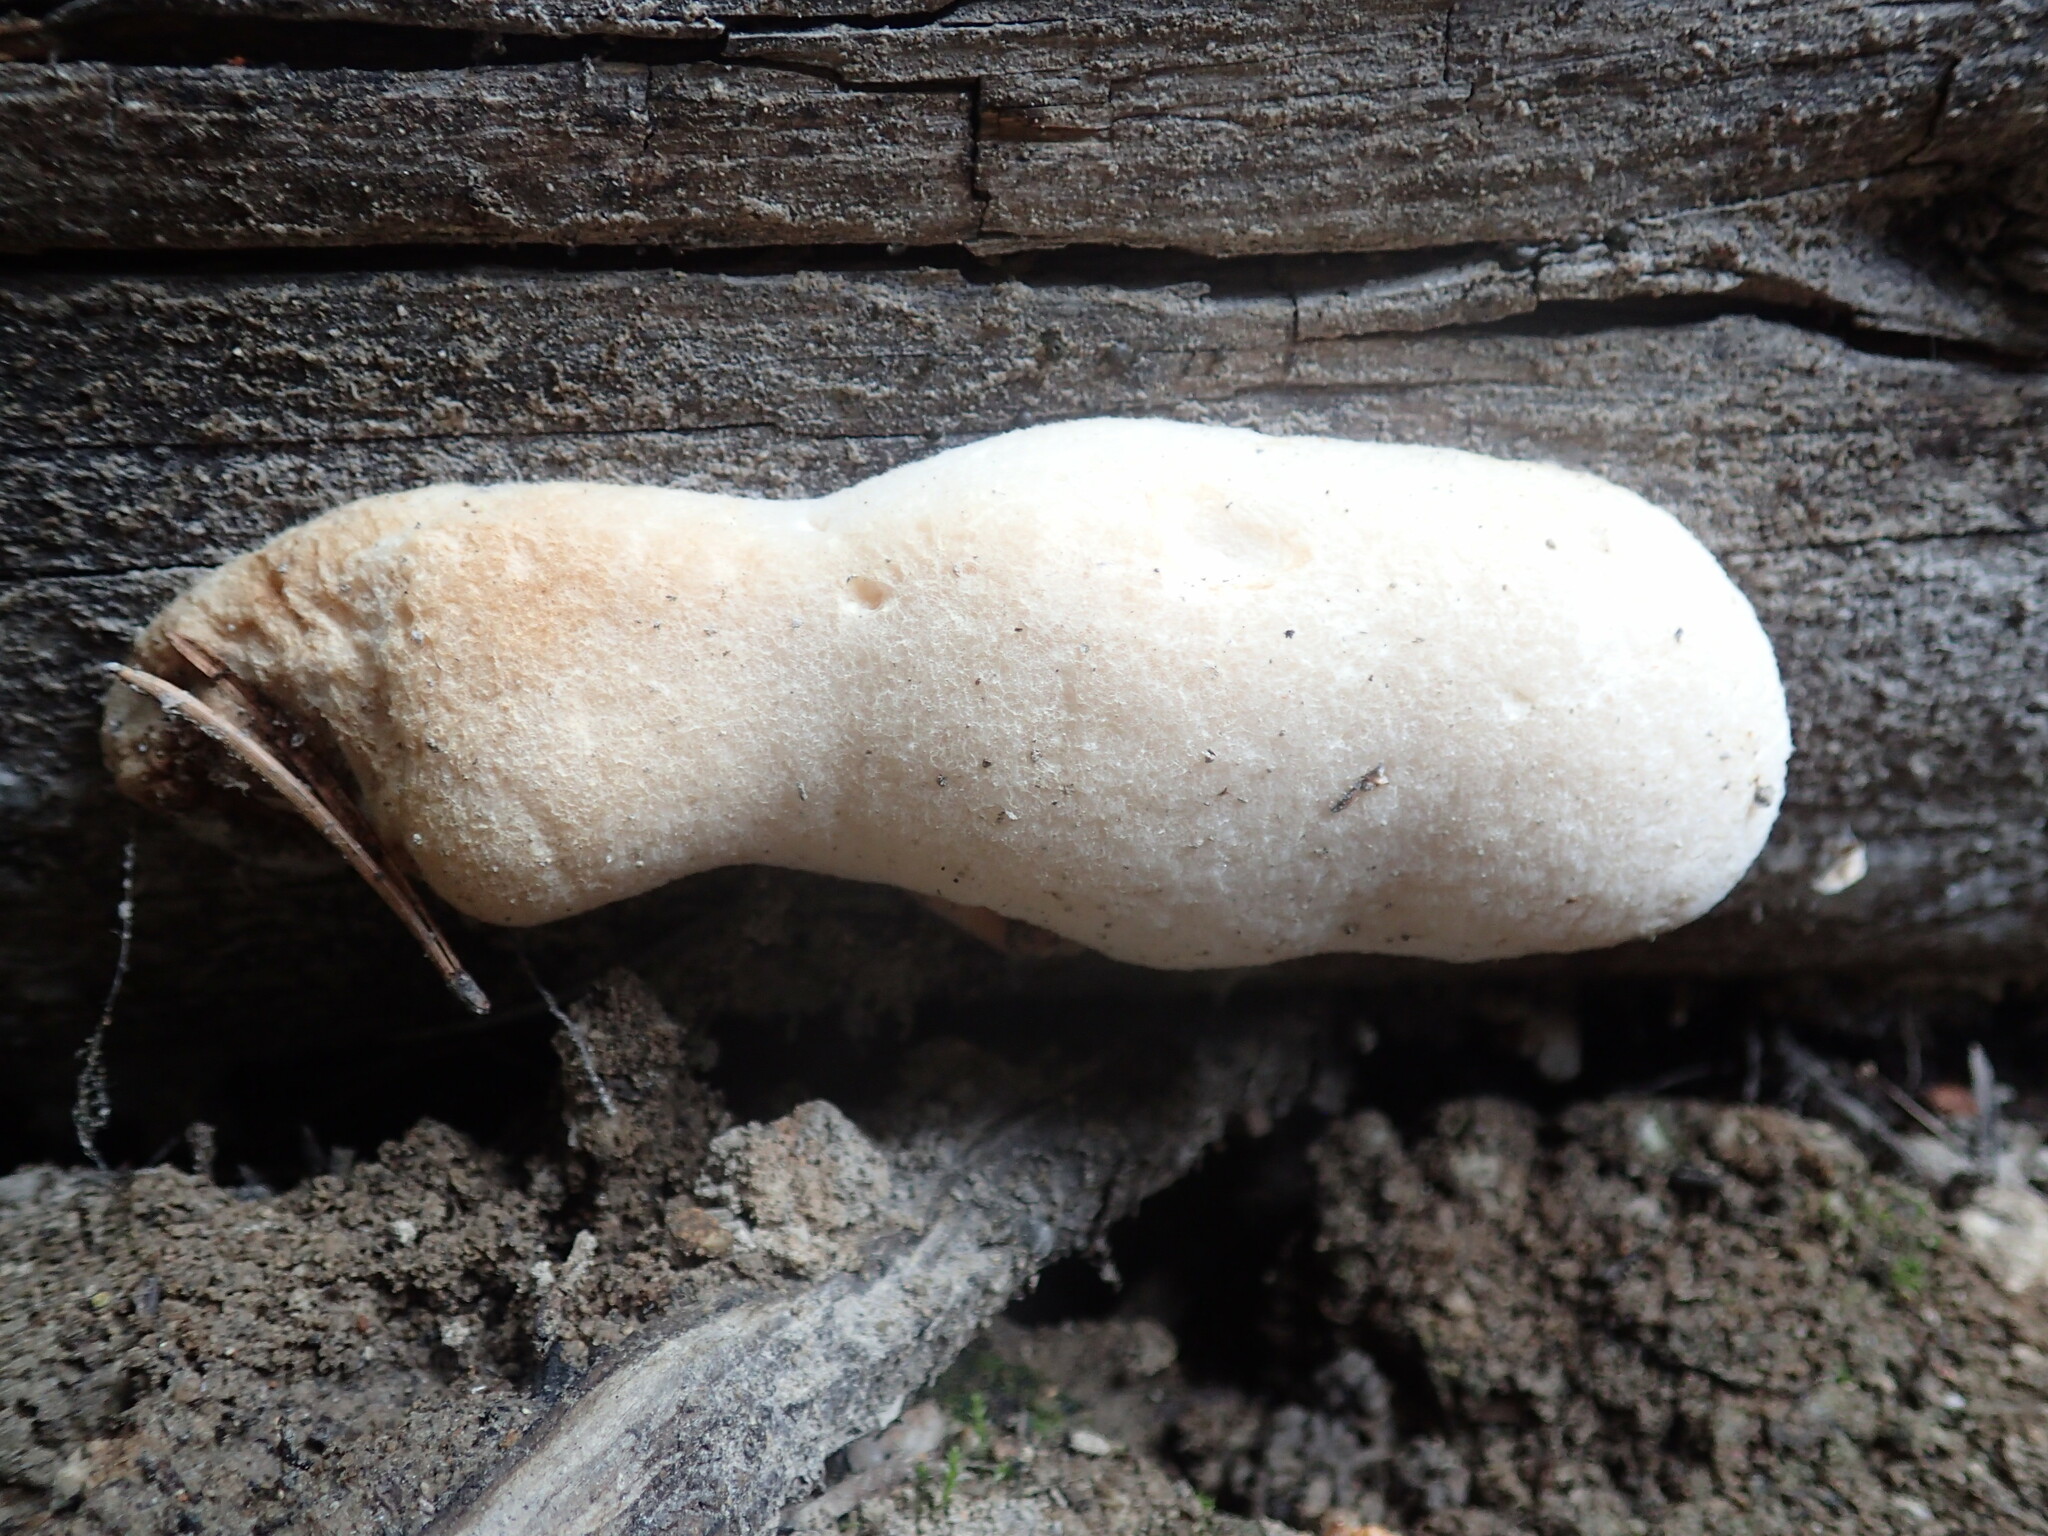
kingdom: Fungi
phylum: Basidiomycota
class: Agaricomycetes
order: Polyporales
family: Incrustoporiaceae
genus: Tyromyces
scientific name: Tyromyces leucospongius
